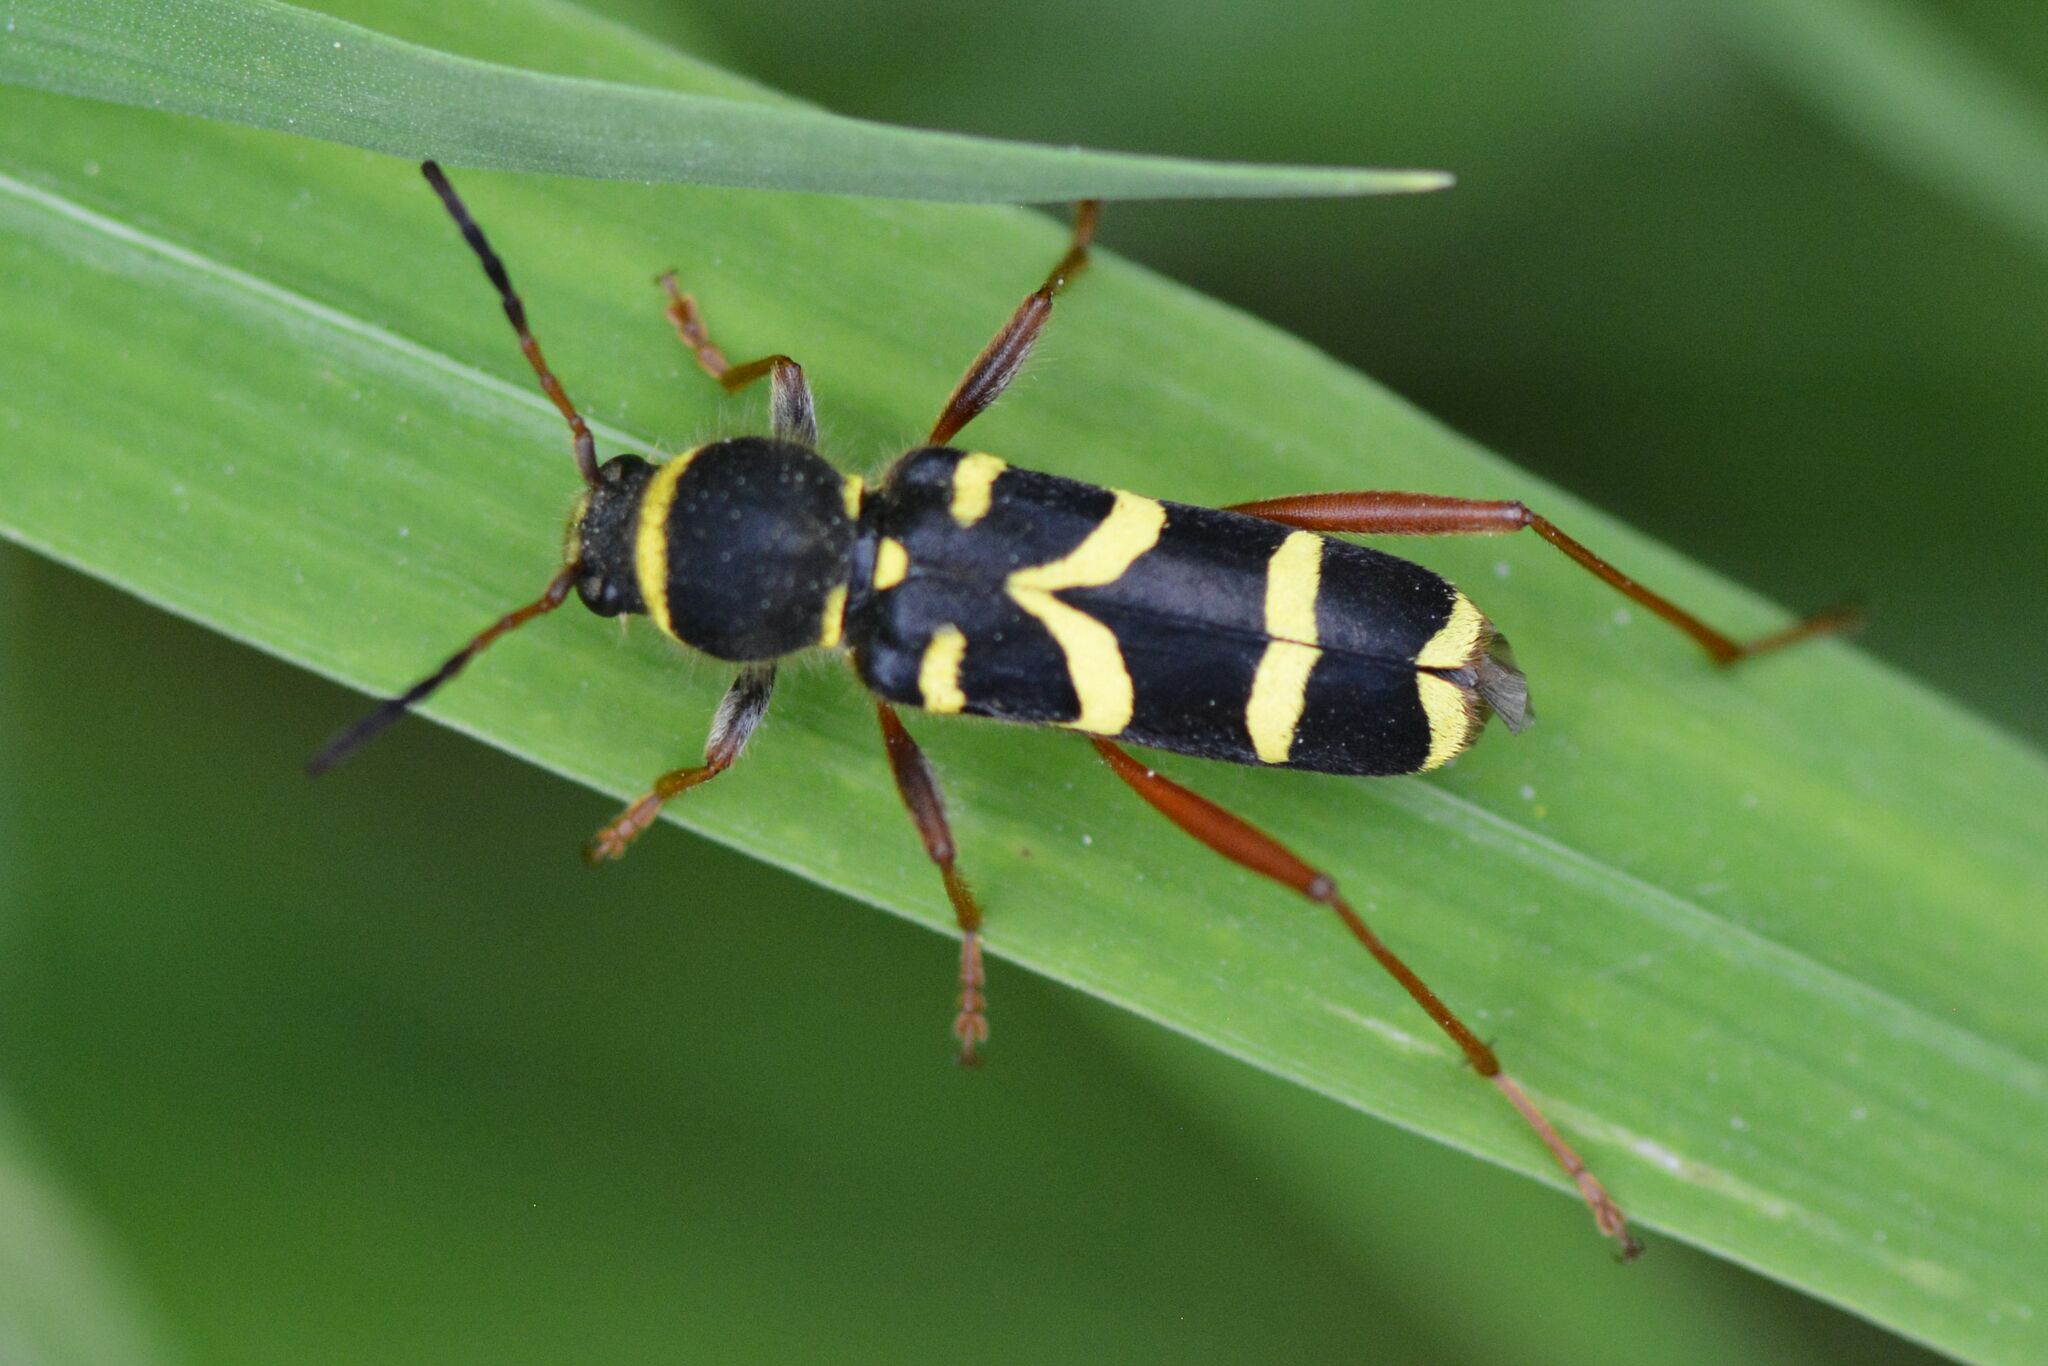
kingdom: Animalia
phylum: Arthropoda
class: Insecta
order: Coleoptera
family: Cerambycidae
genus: Clytus
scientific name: Clytus arietis
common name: Wasp beetle
